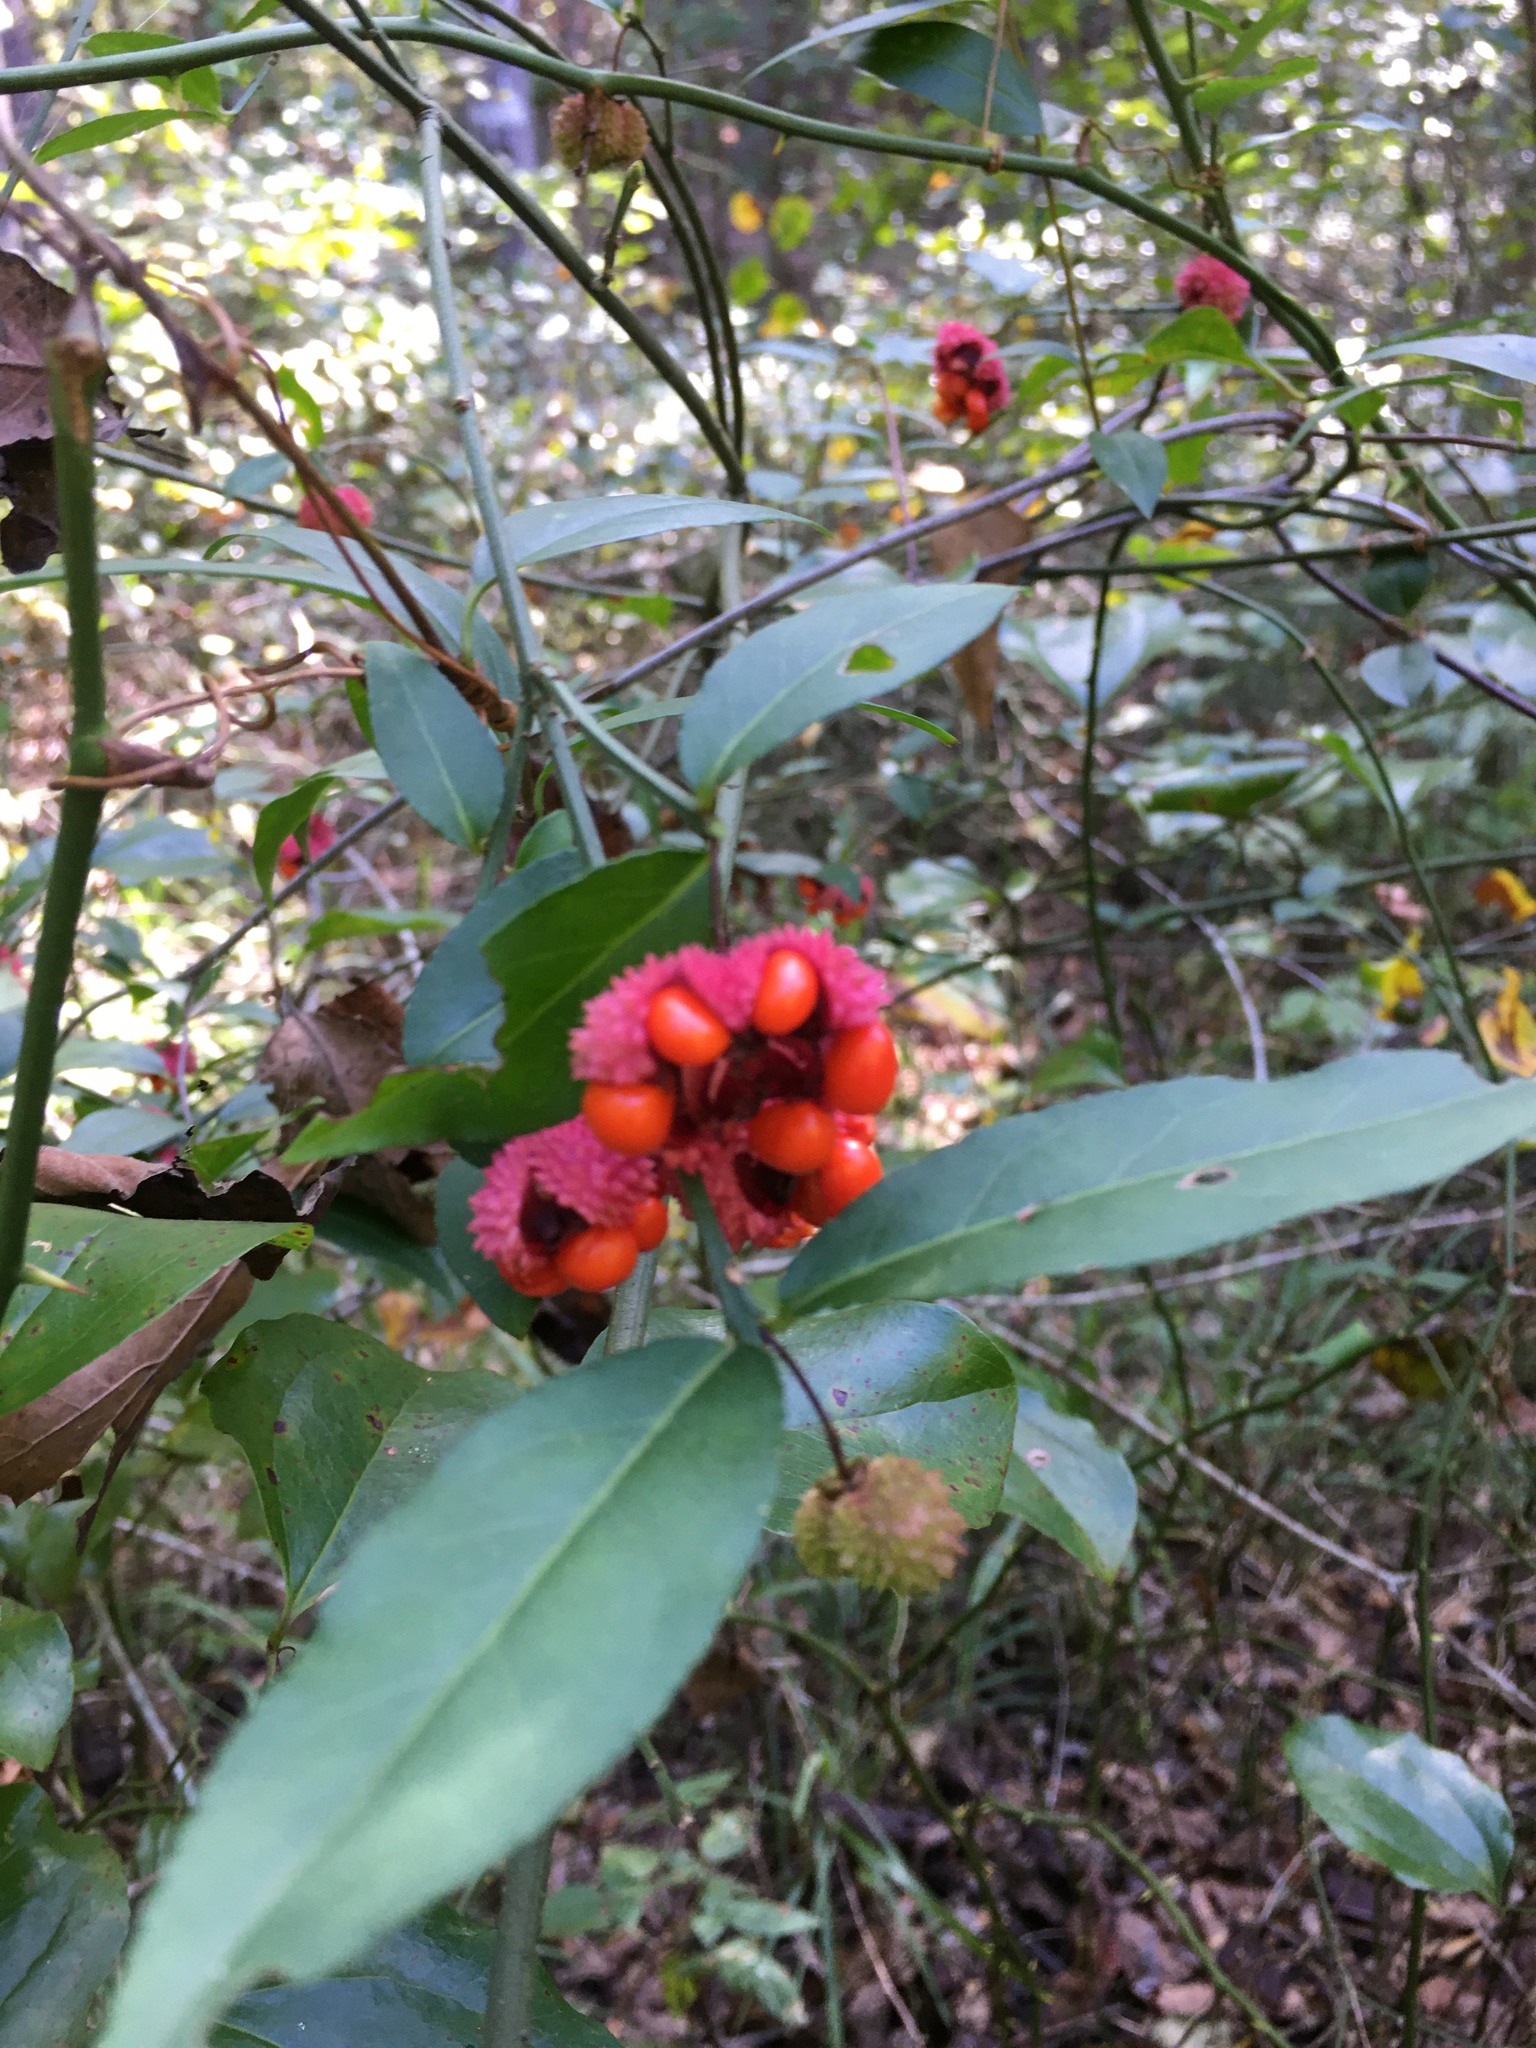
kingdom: Plantae
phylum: Tracheophyta
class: Magnoliopsida
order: Celastrales
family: Celastraceae
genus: Euonymus
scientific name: Euonymus americanus
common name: Bursting-heart
